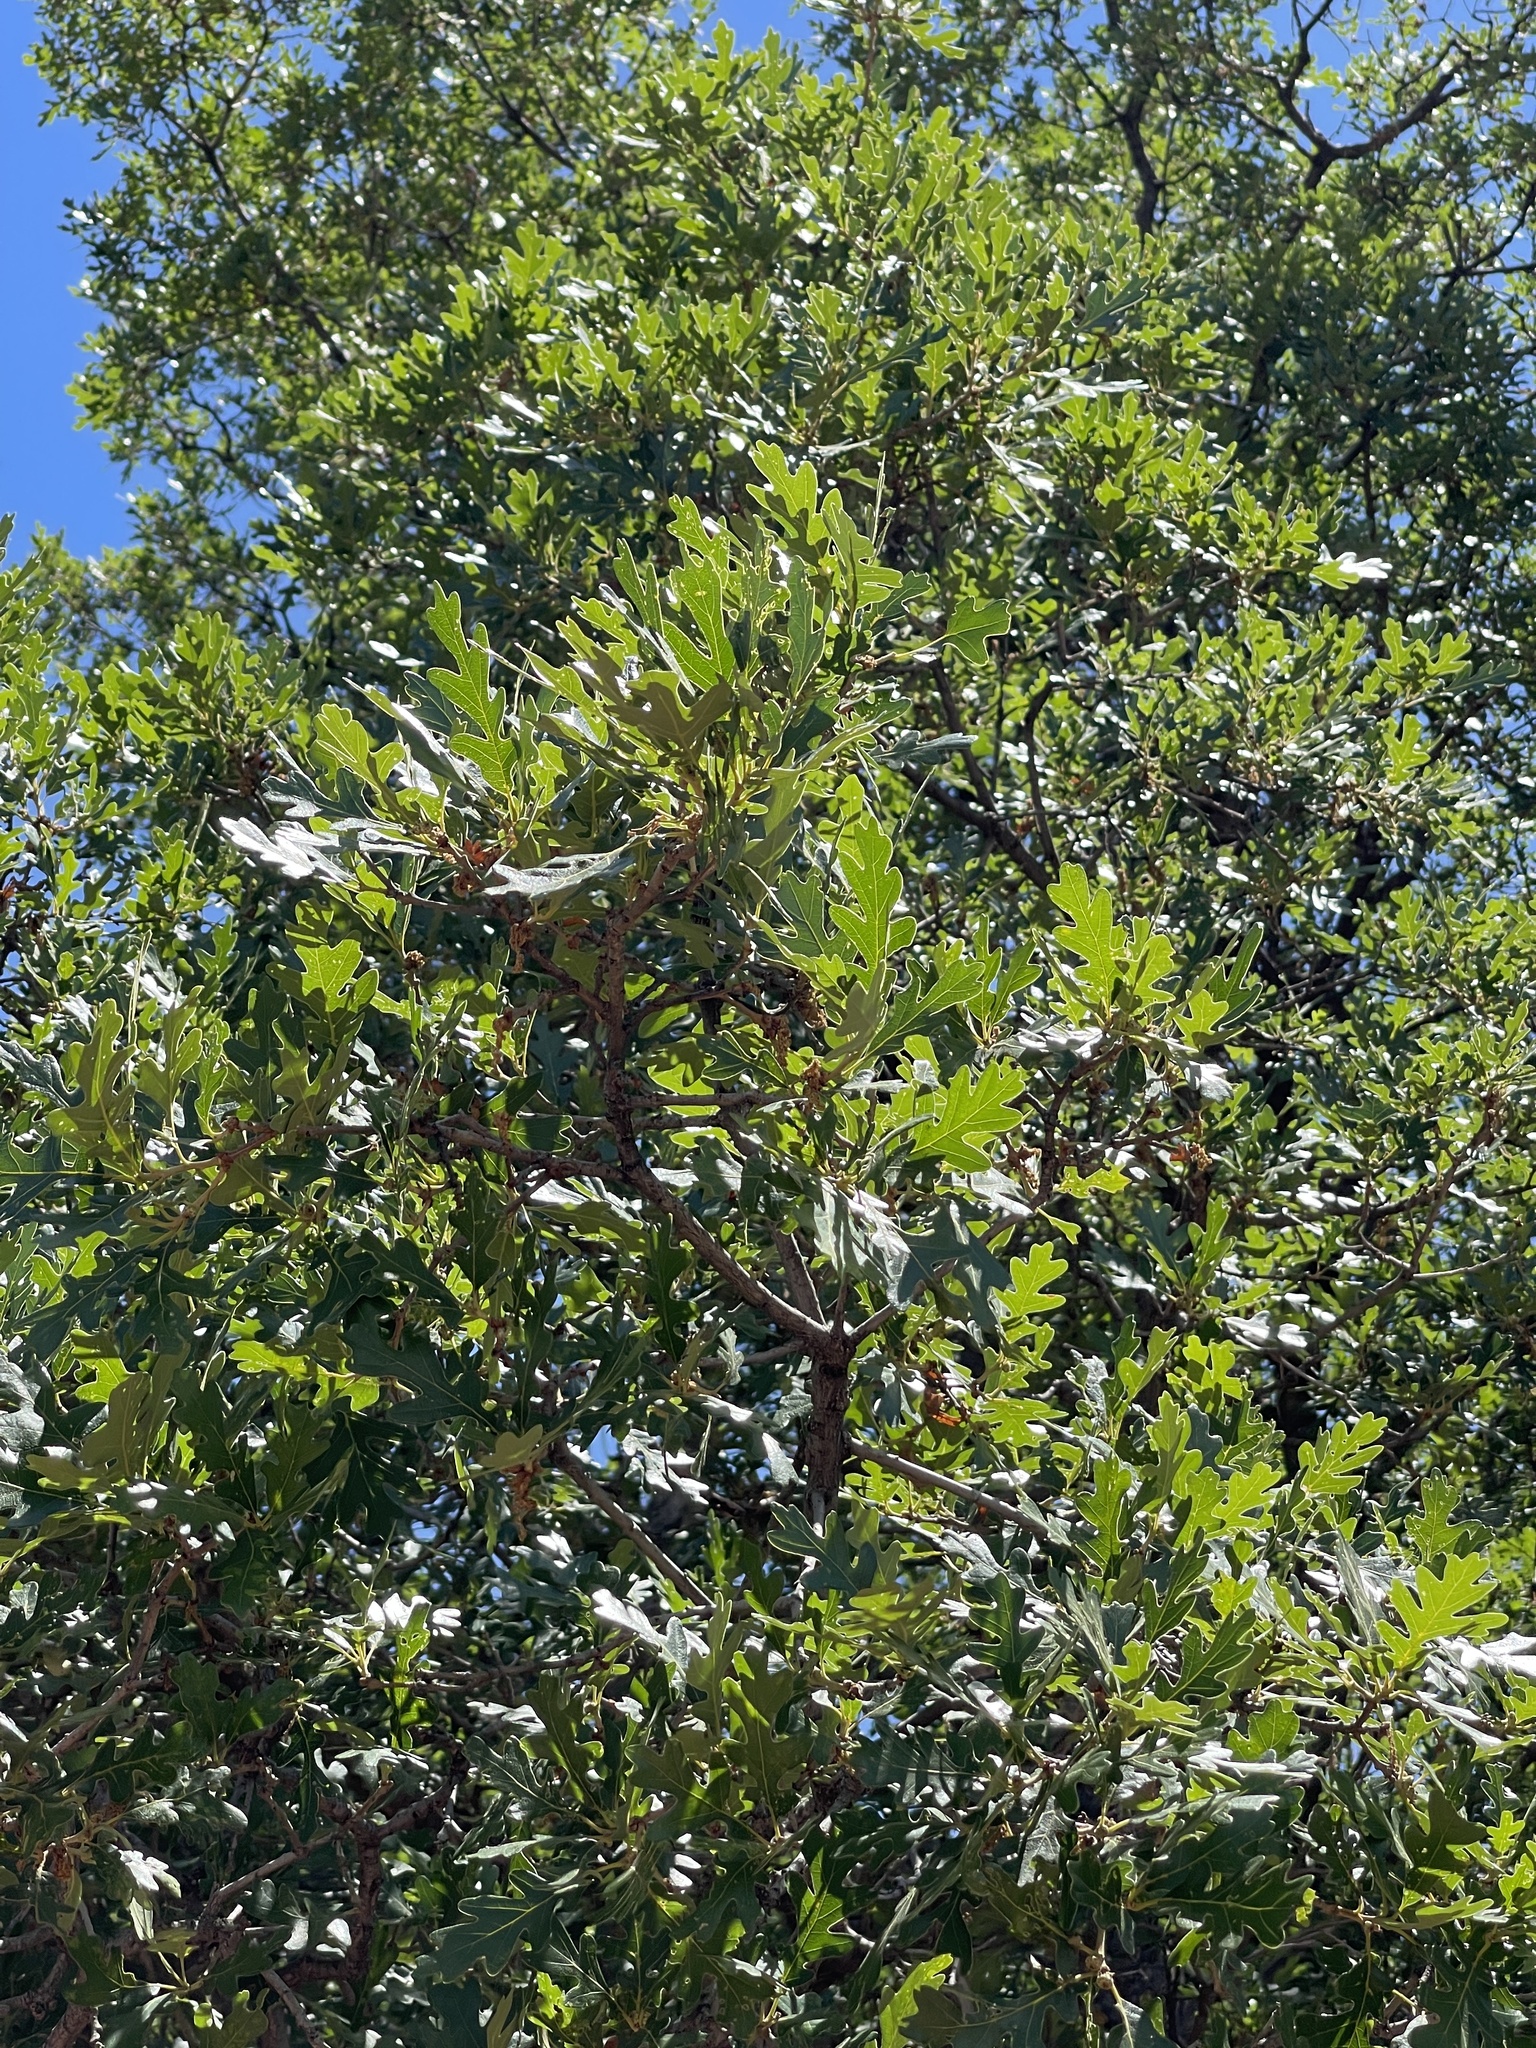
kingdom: Plantae
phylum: Tracheophyta
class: Magnoliopsida
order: Fagales
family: Fagaceae
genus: Quercus
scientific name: Quercus gambelii
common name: Gambel oak
